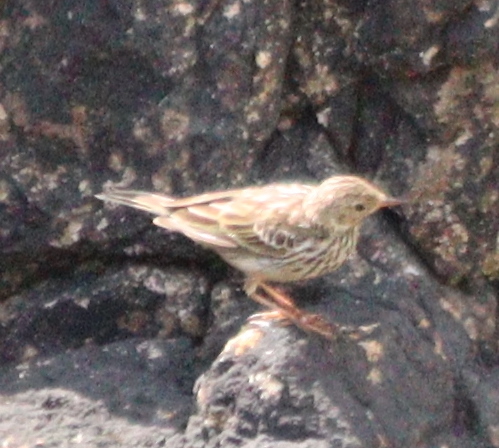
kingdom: Animalia
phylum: Chordata
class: Aves
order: Passeriformes
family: Motacillidae
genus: Anthus
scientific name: Anthus pratensis
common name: Meadow pipit
